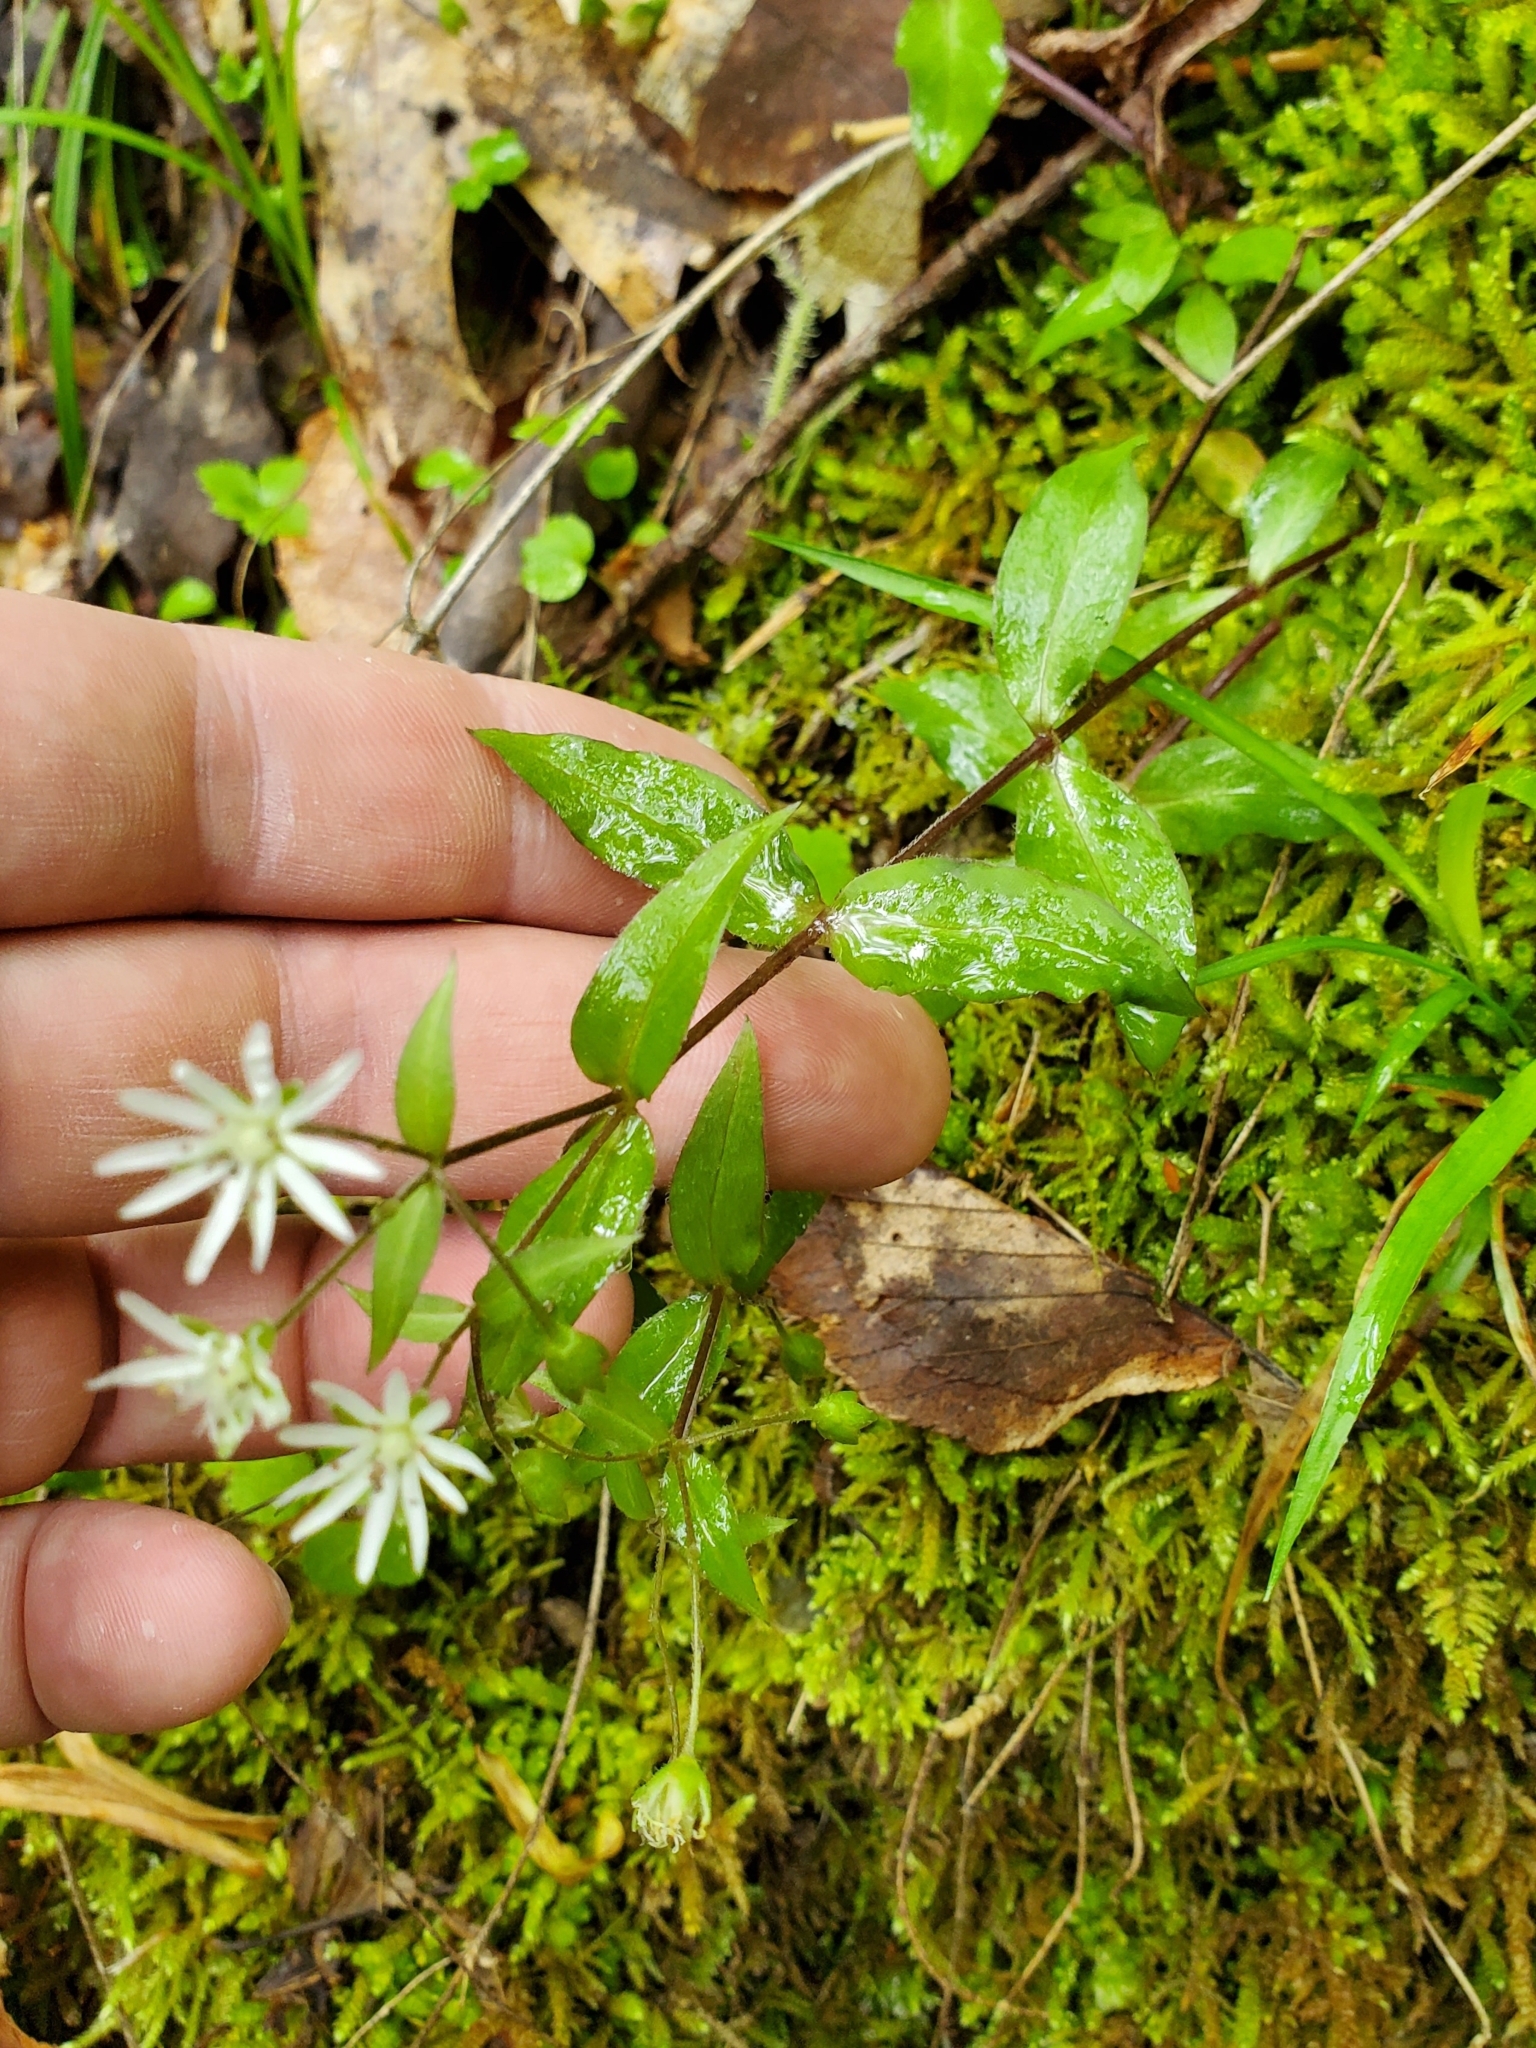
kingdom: Plantae
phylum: Tracheophyta
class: Magnoliopsida
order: Caryophyllales
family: Caryophyllaceae
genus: Stellaria
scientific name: Stellaria pubera
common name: Star chickweed
